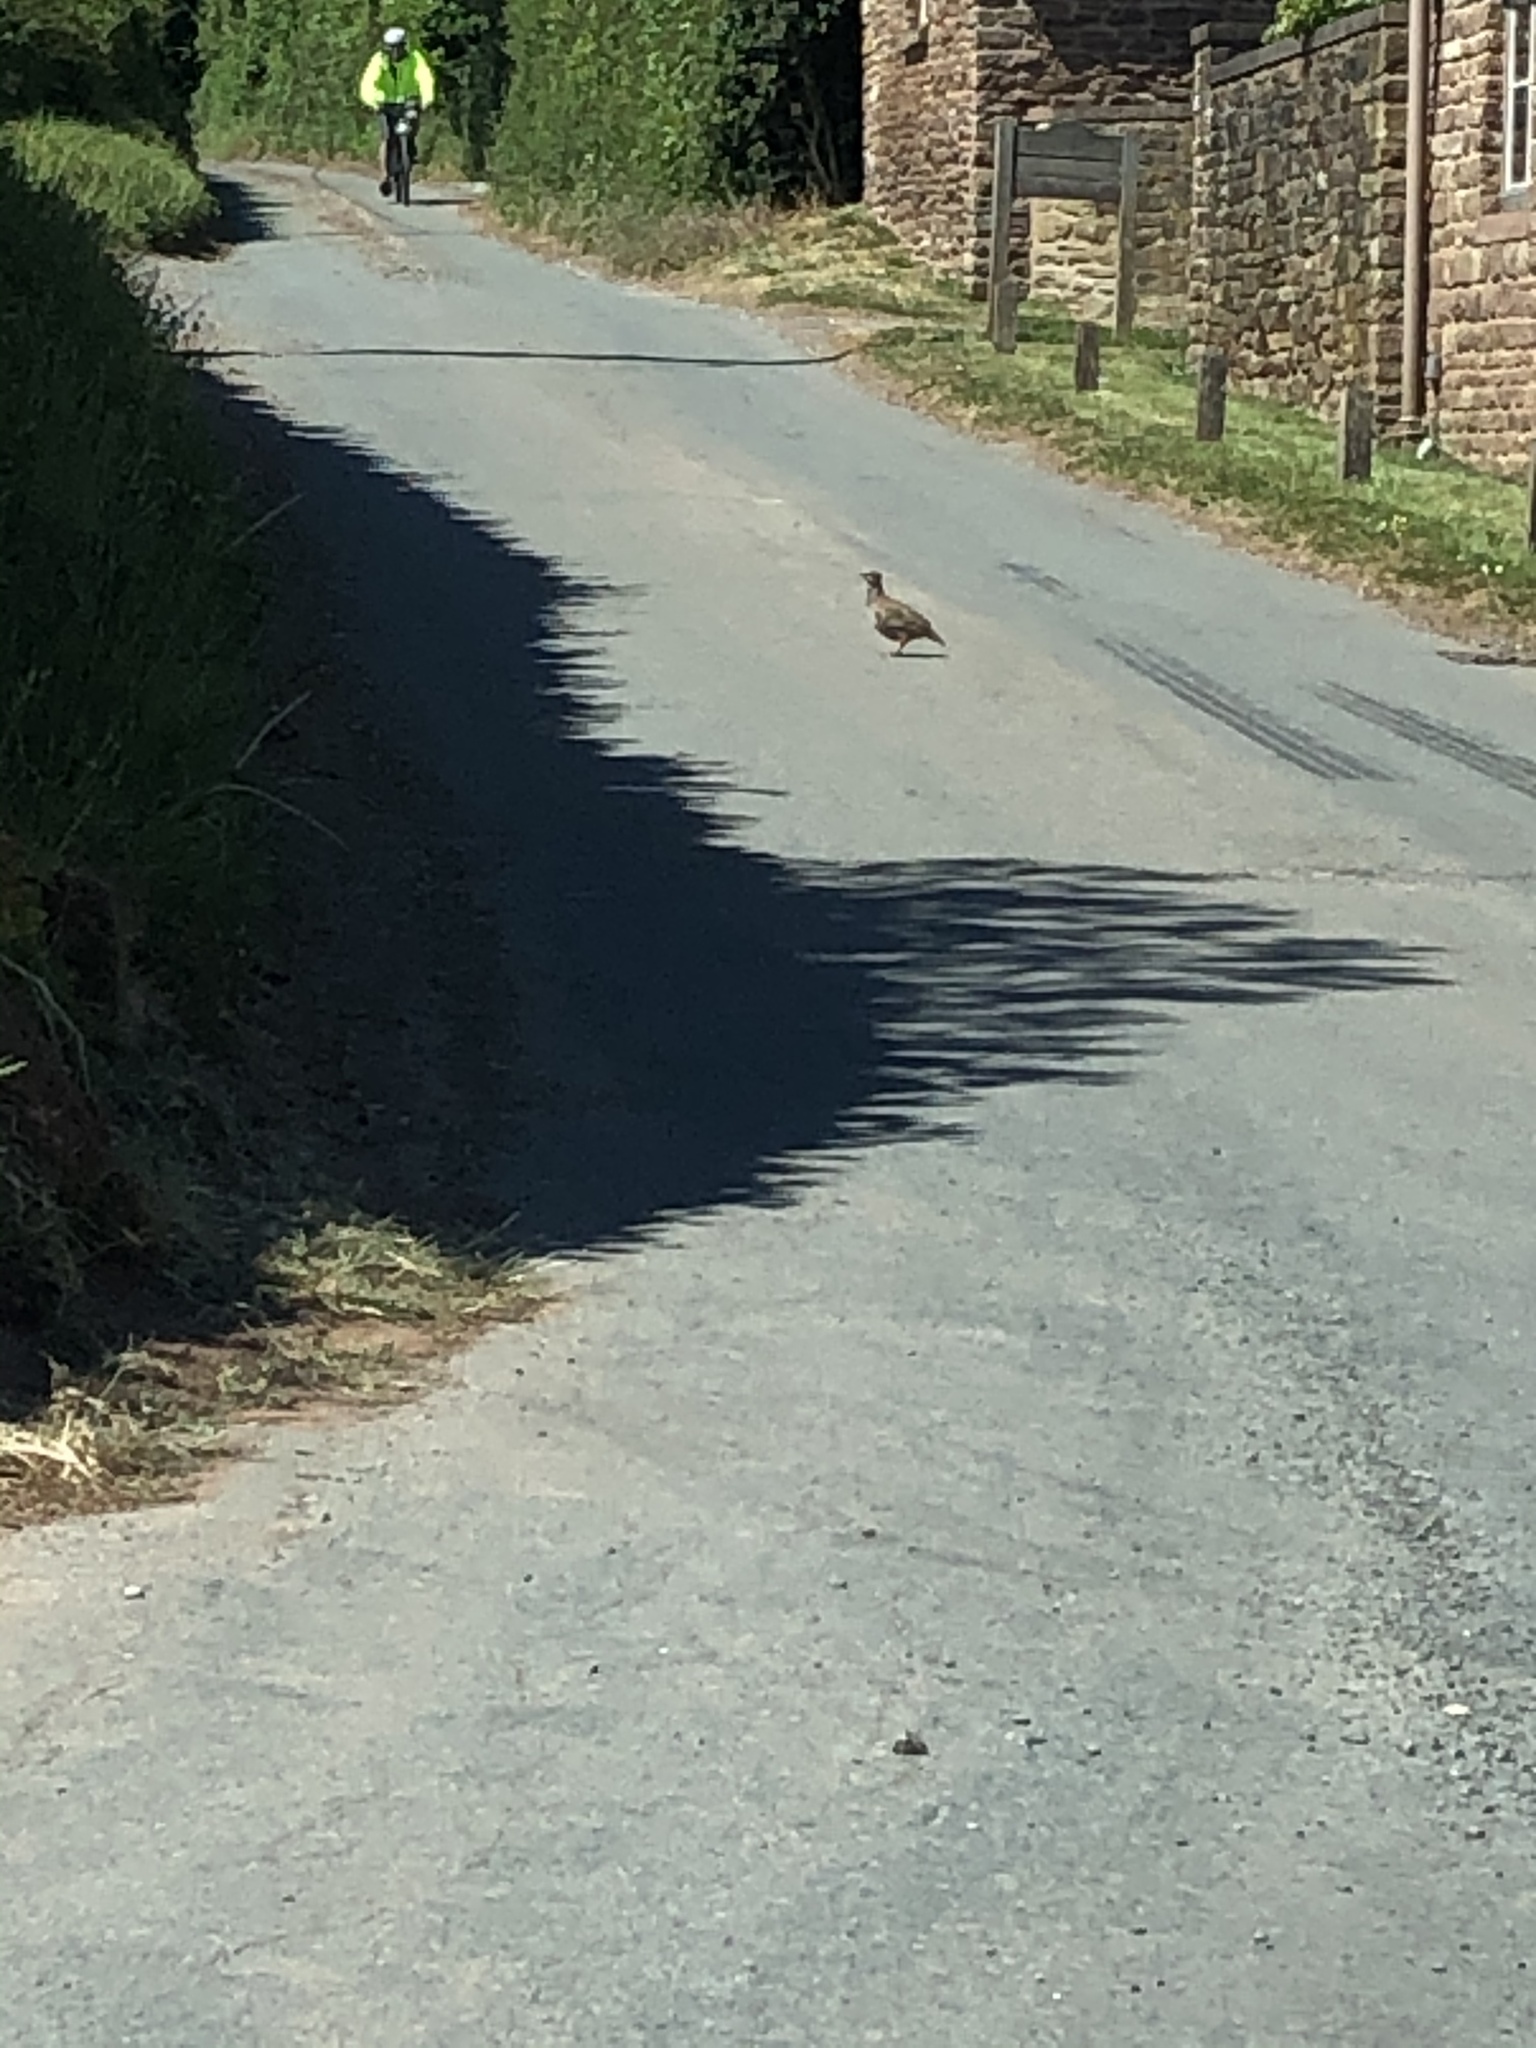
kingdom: Animalia
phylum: Chordata
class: Aves
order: Galliformes
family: Phasianidae
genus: Alectoris
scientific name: Alectoris rufa
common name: Red-legged partridge
